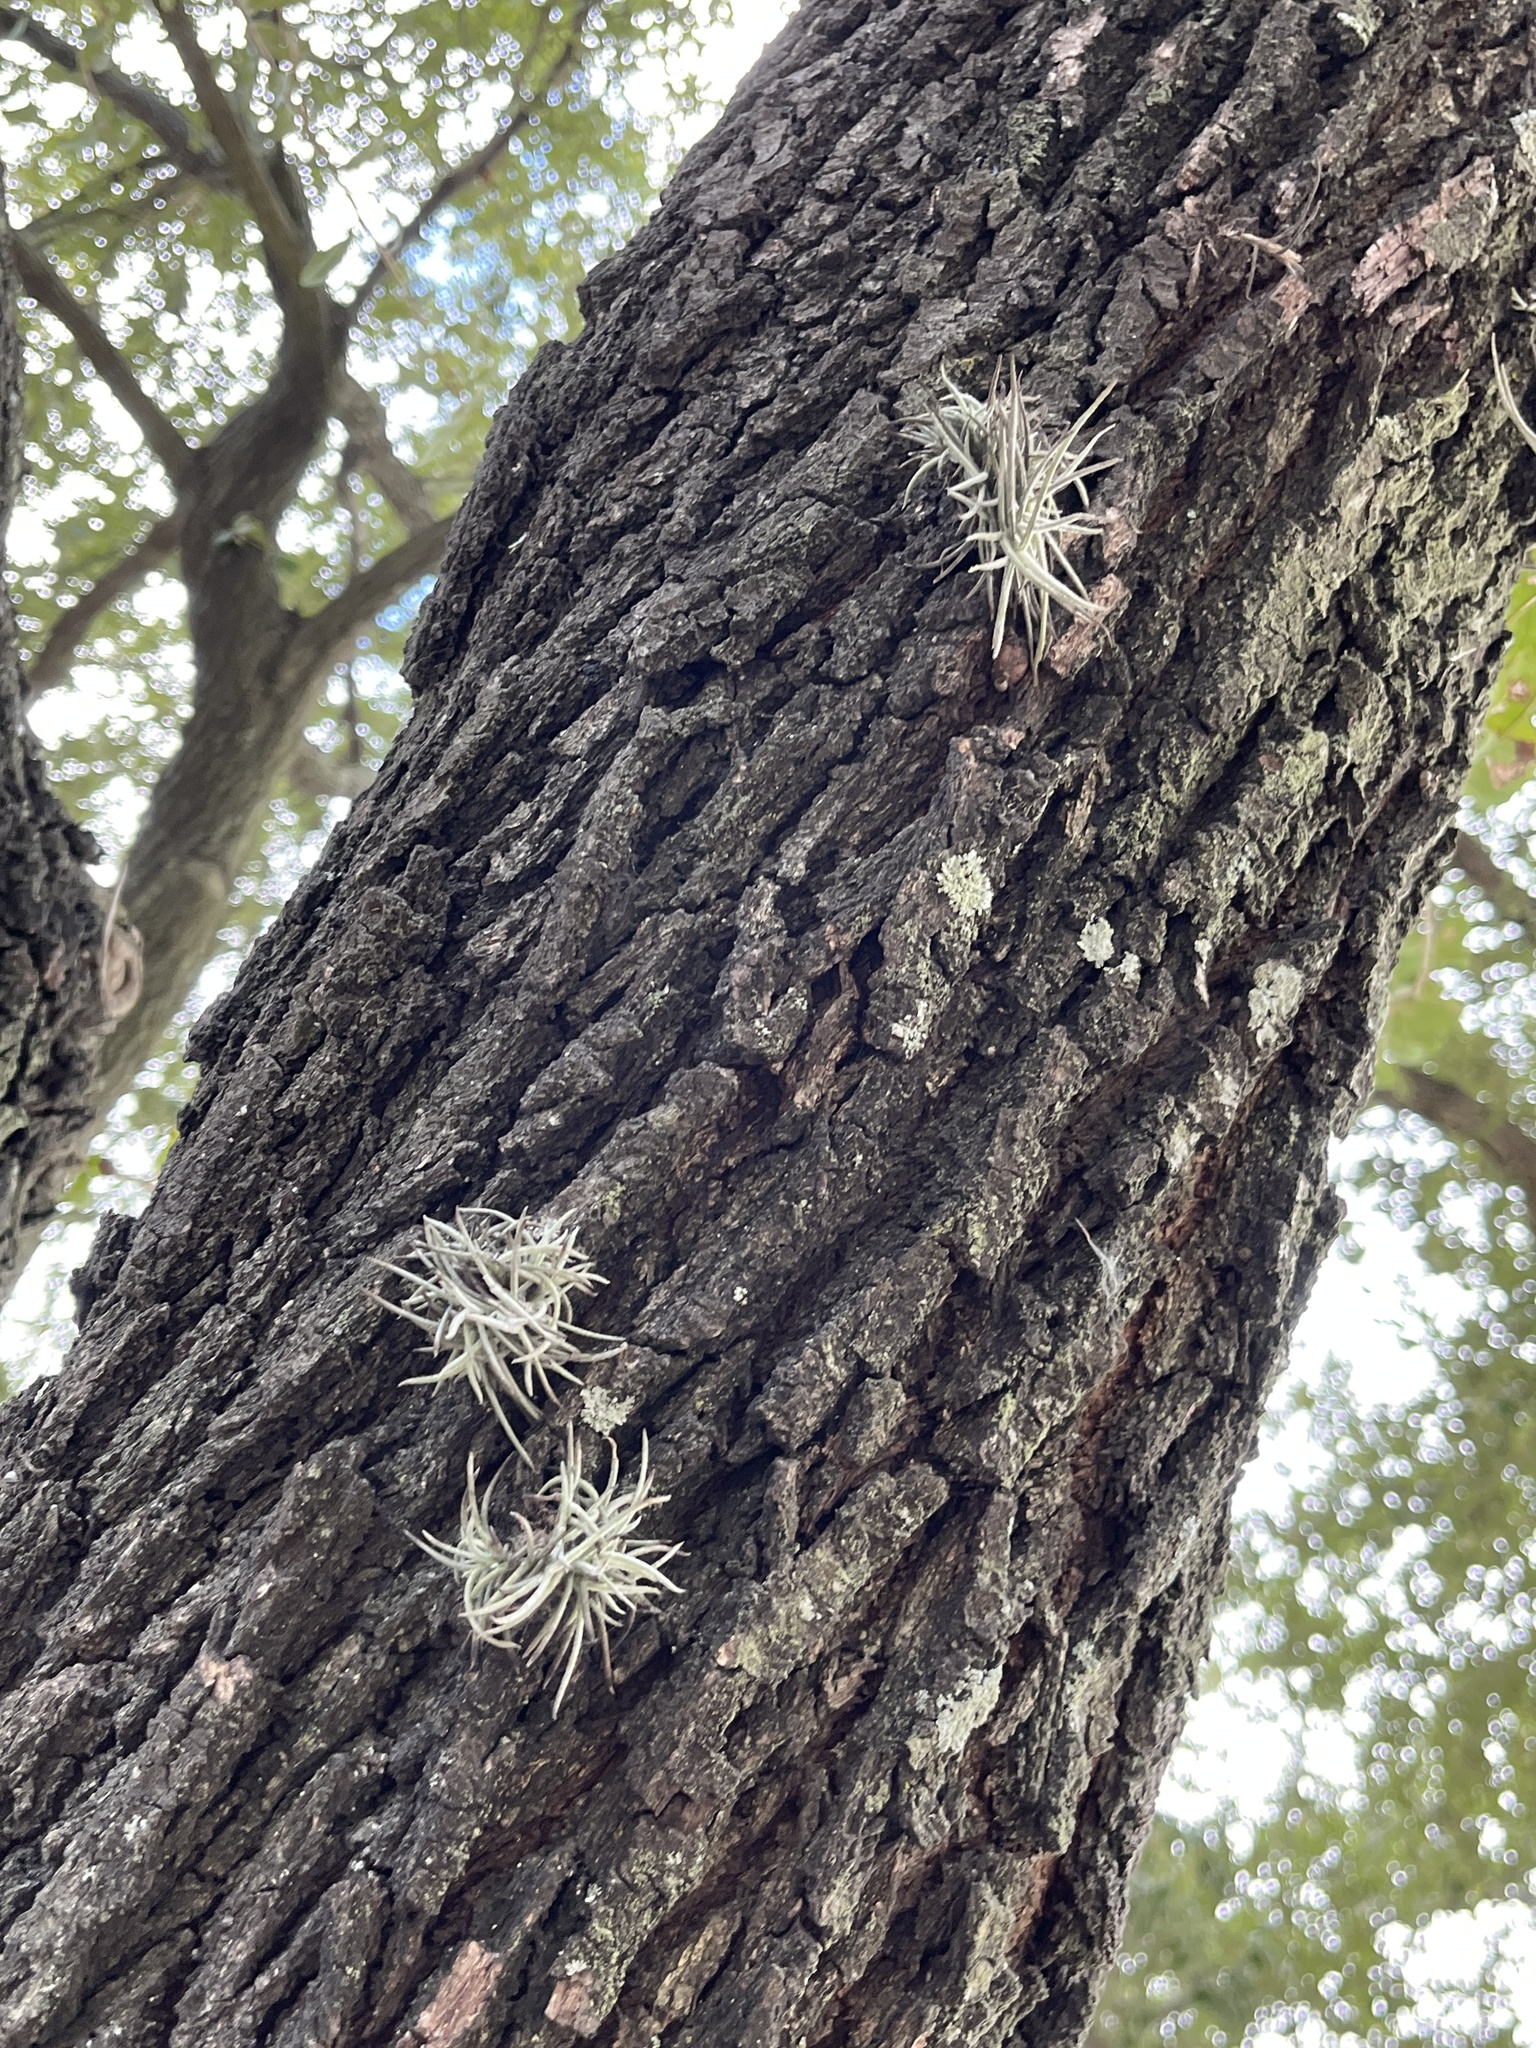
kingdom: Plantae
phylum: Tracheophyta
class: Liliopsida
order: Poales
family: Bromeliaceae
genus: Tillandsia
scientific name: Tillandsia recurvata
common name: Small ballmoss
